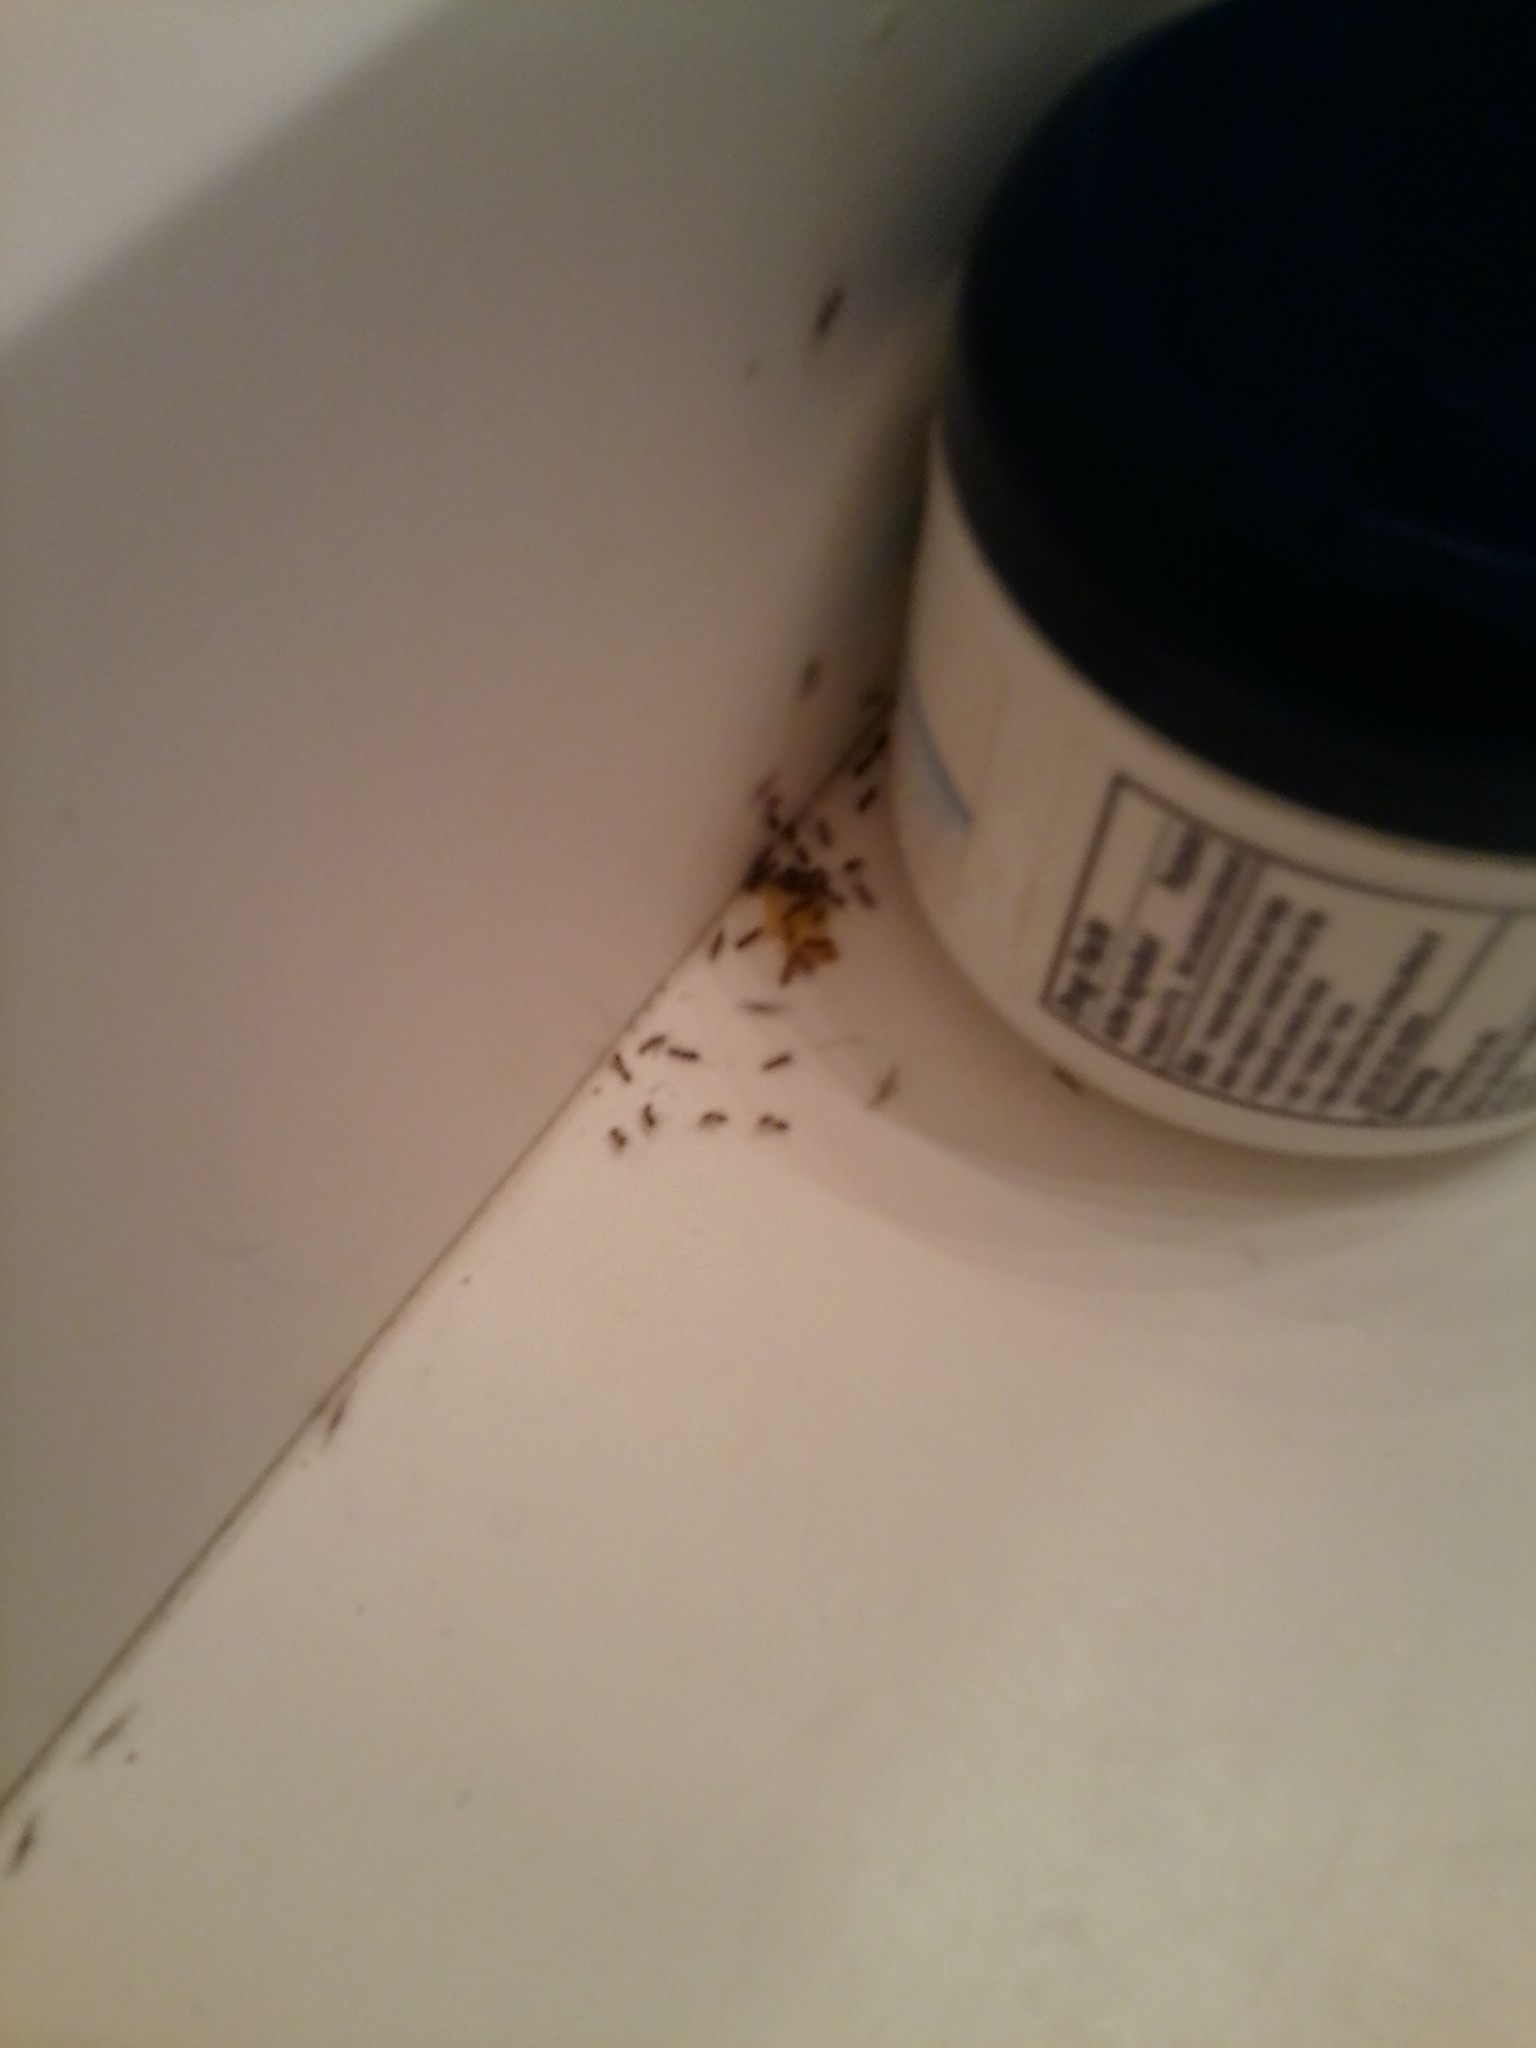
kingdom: Animalia
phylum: Arthropoda
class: Insecta
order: Hymenoptera
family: Formicidae
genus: Linepithema
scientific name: Linepithema humile
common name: Argentine ant
